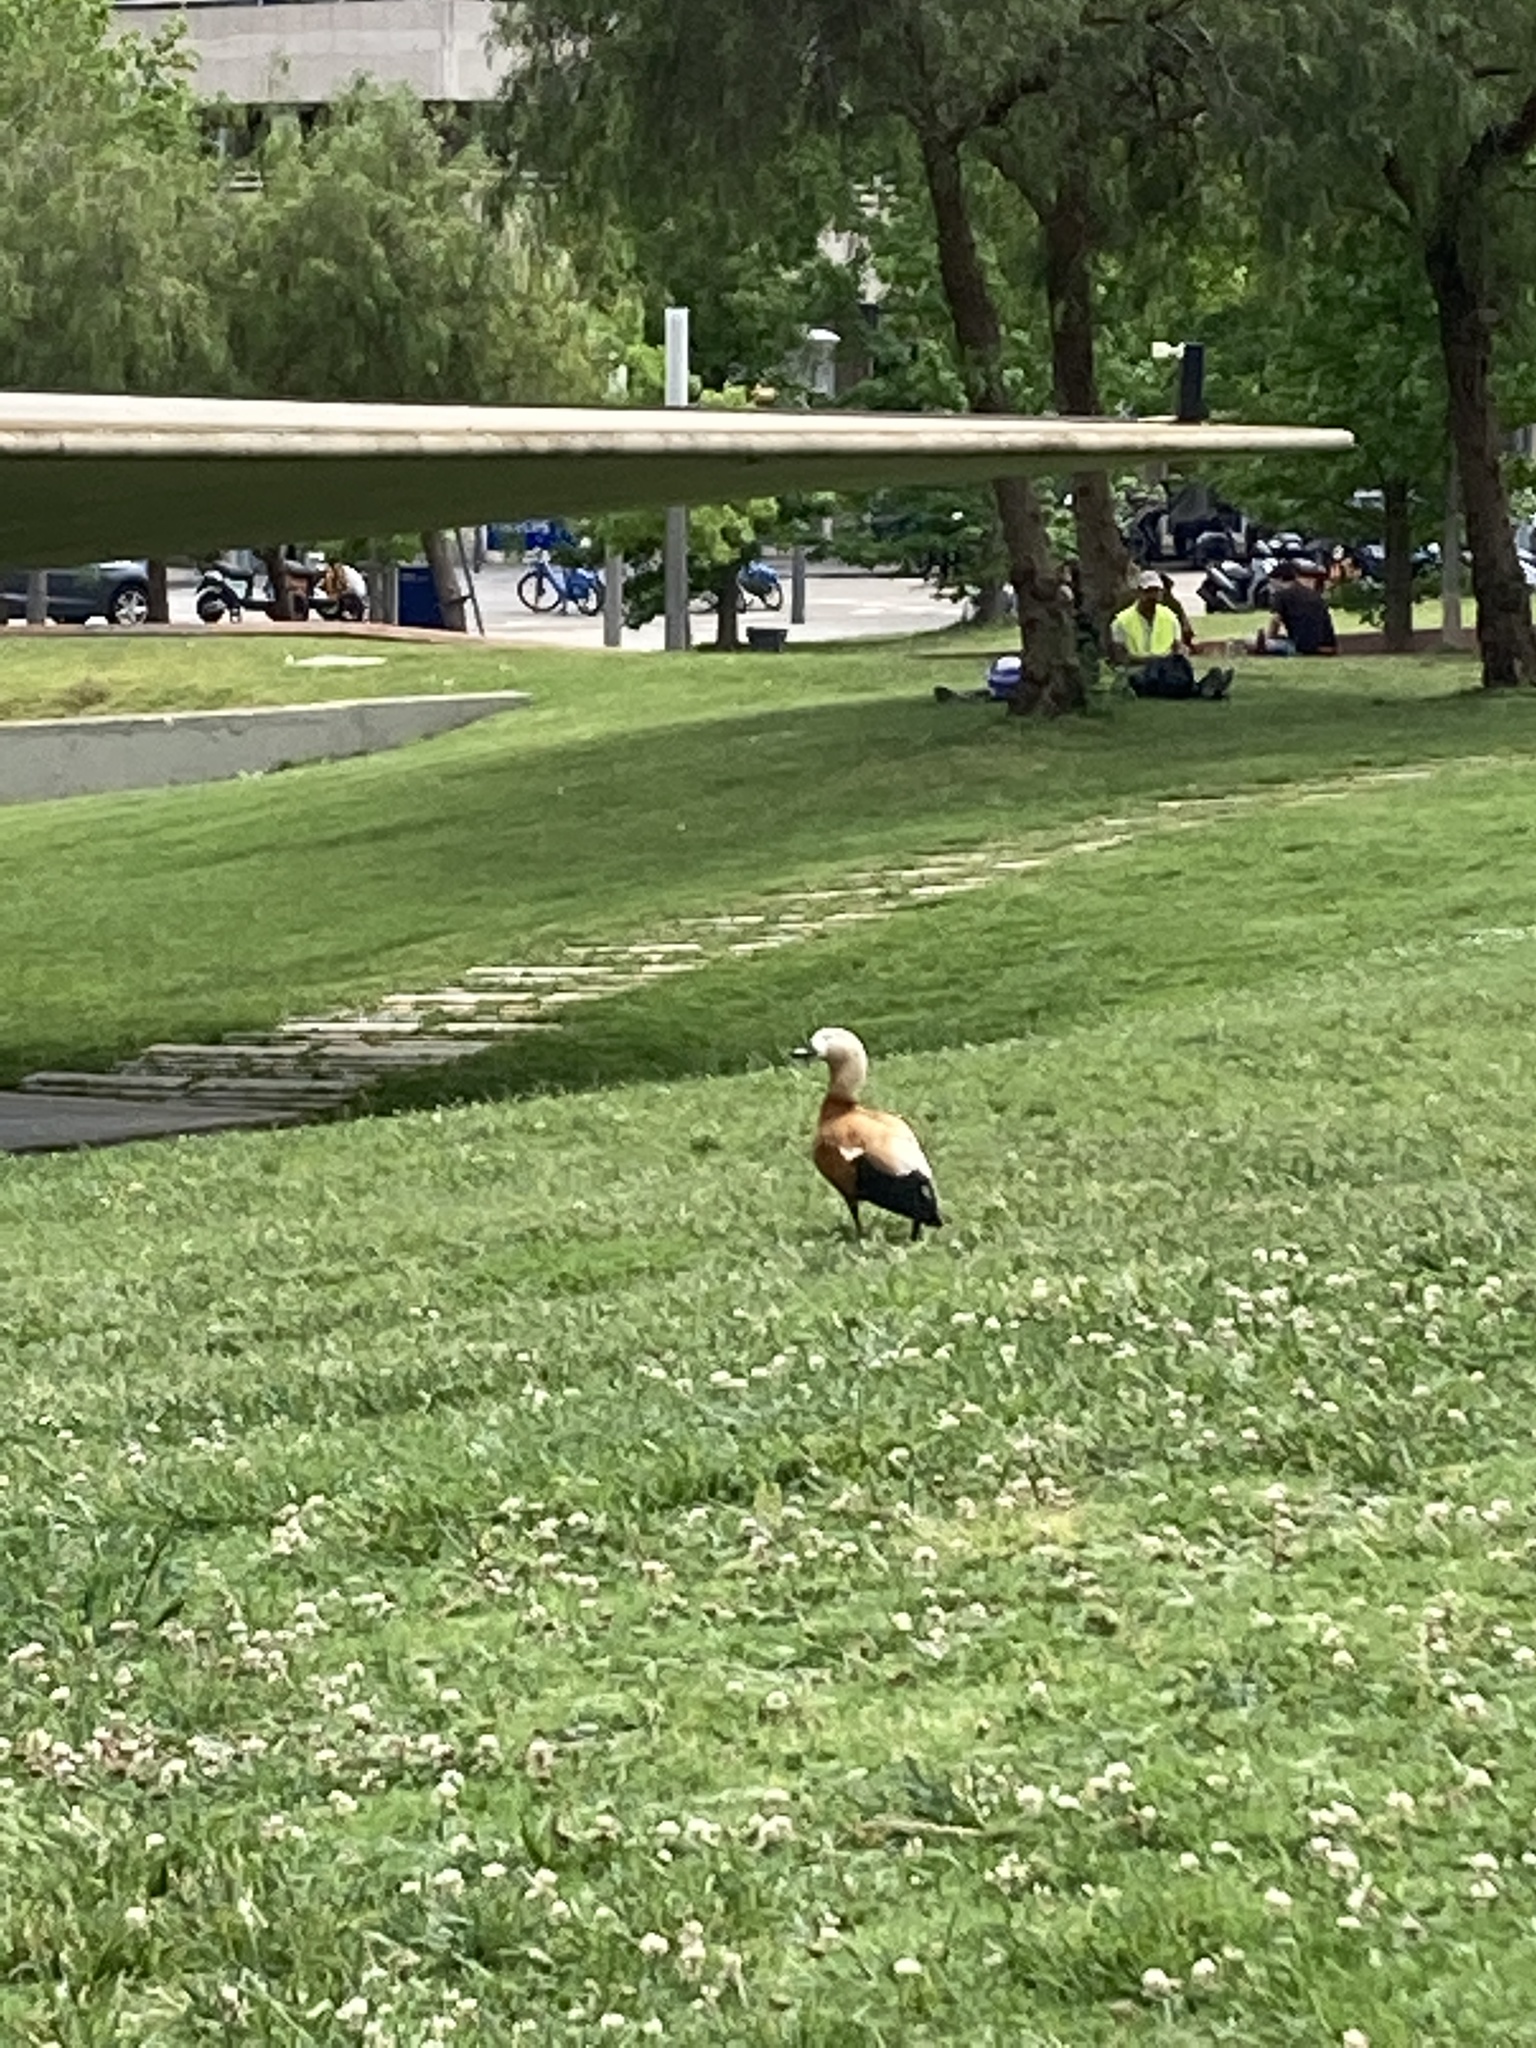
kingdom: Animalia
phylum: Chordata
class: Aves
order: Anseriformes
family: Anatidae
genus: Tadorna
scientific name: Tadorna ferruginea
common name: Ruddy shelduck
